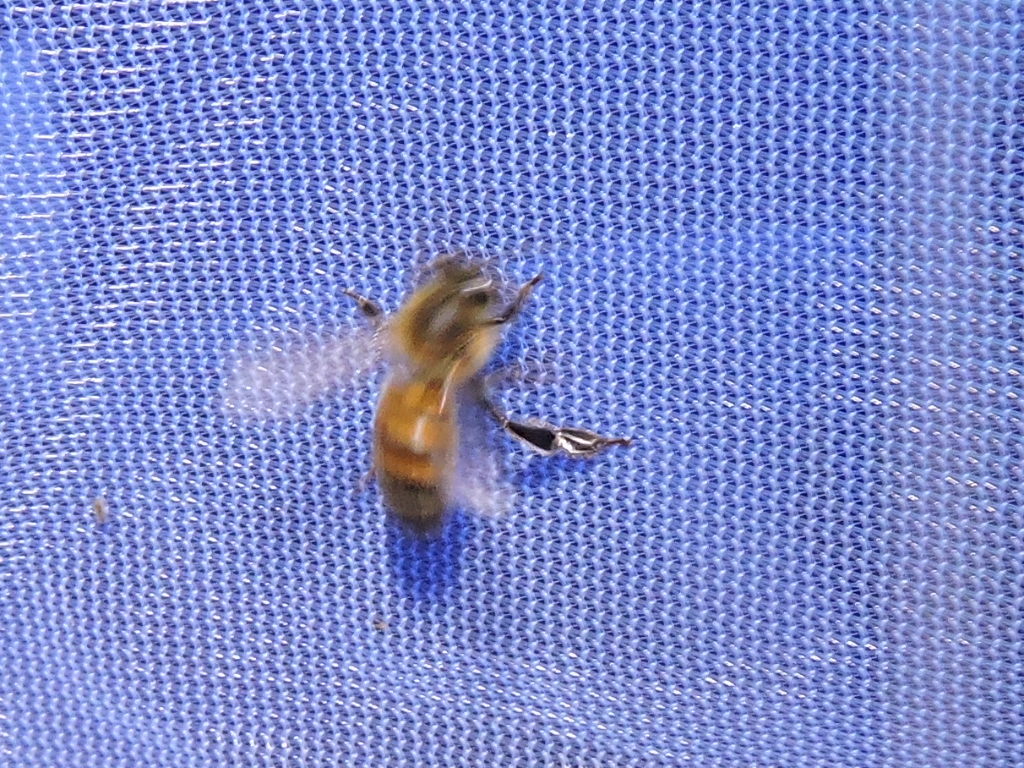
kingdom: Animalia
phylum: Arthropoda
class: Insecta
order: Hymenoptera
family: Apidae
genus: Apis
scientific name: Apis mellifera
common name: Honey bee
